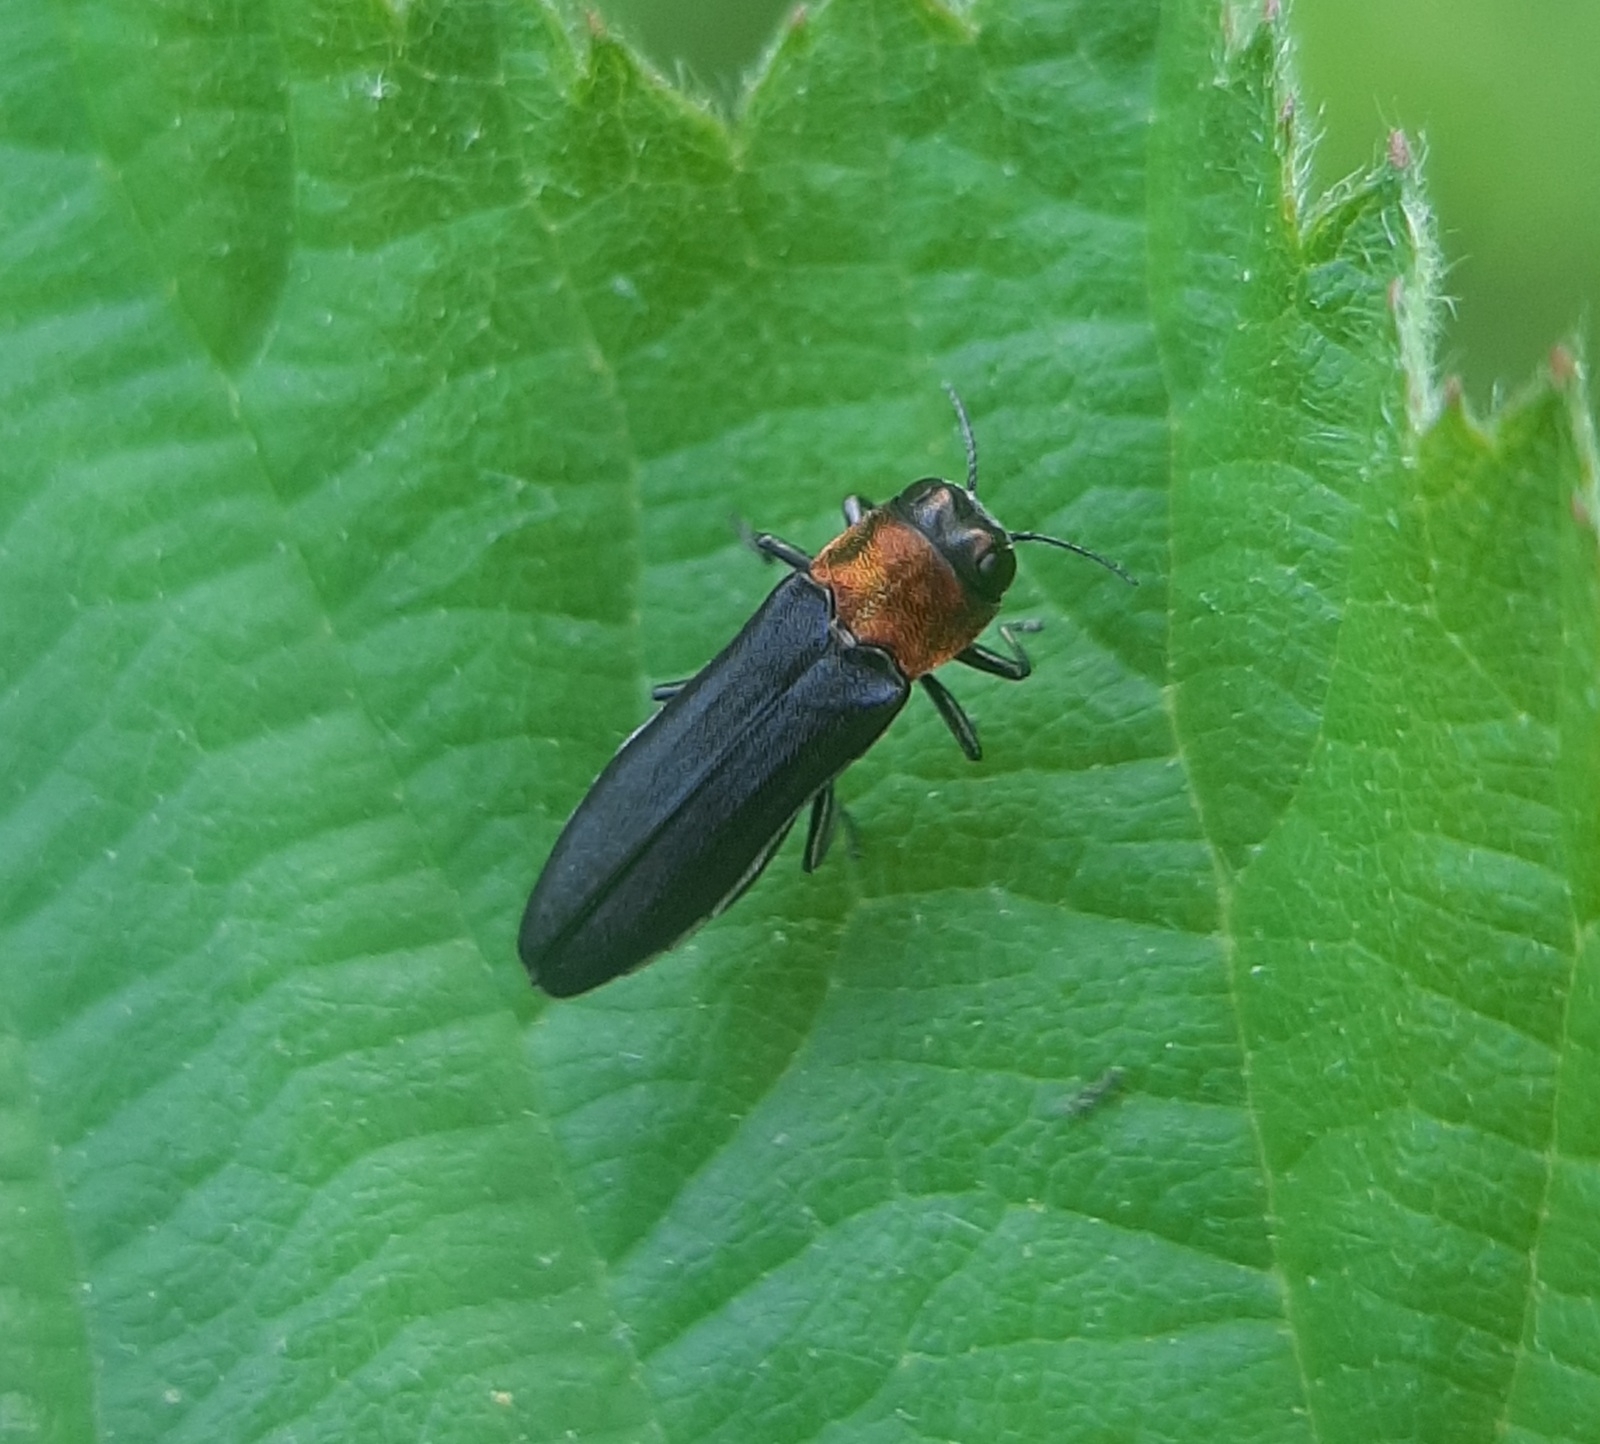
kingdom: Animalia
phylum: Arthropoda
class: Insecta
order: Coleoptera
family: Buprestidae
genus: Agrilus
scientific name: Agrilus ruficollis
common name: Red-necked cane borer beetle
